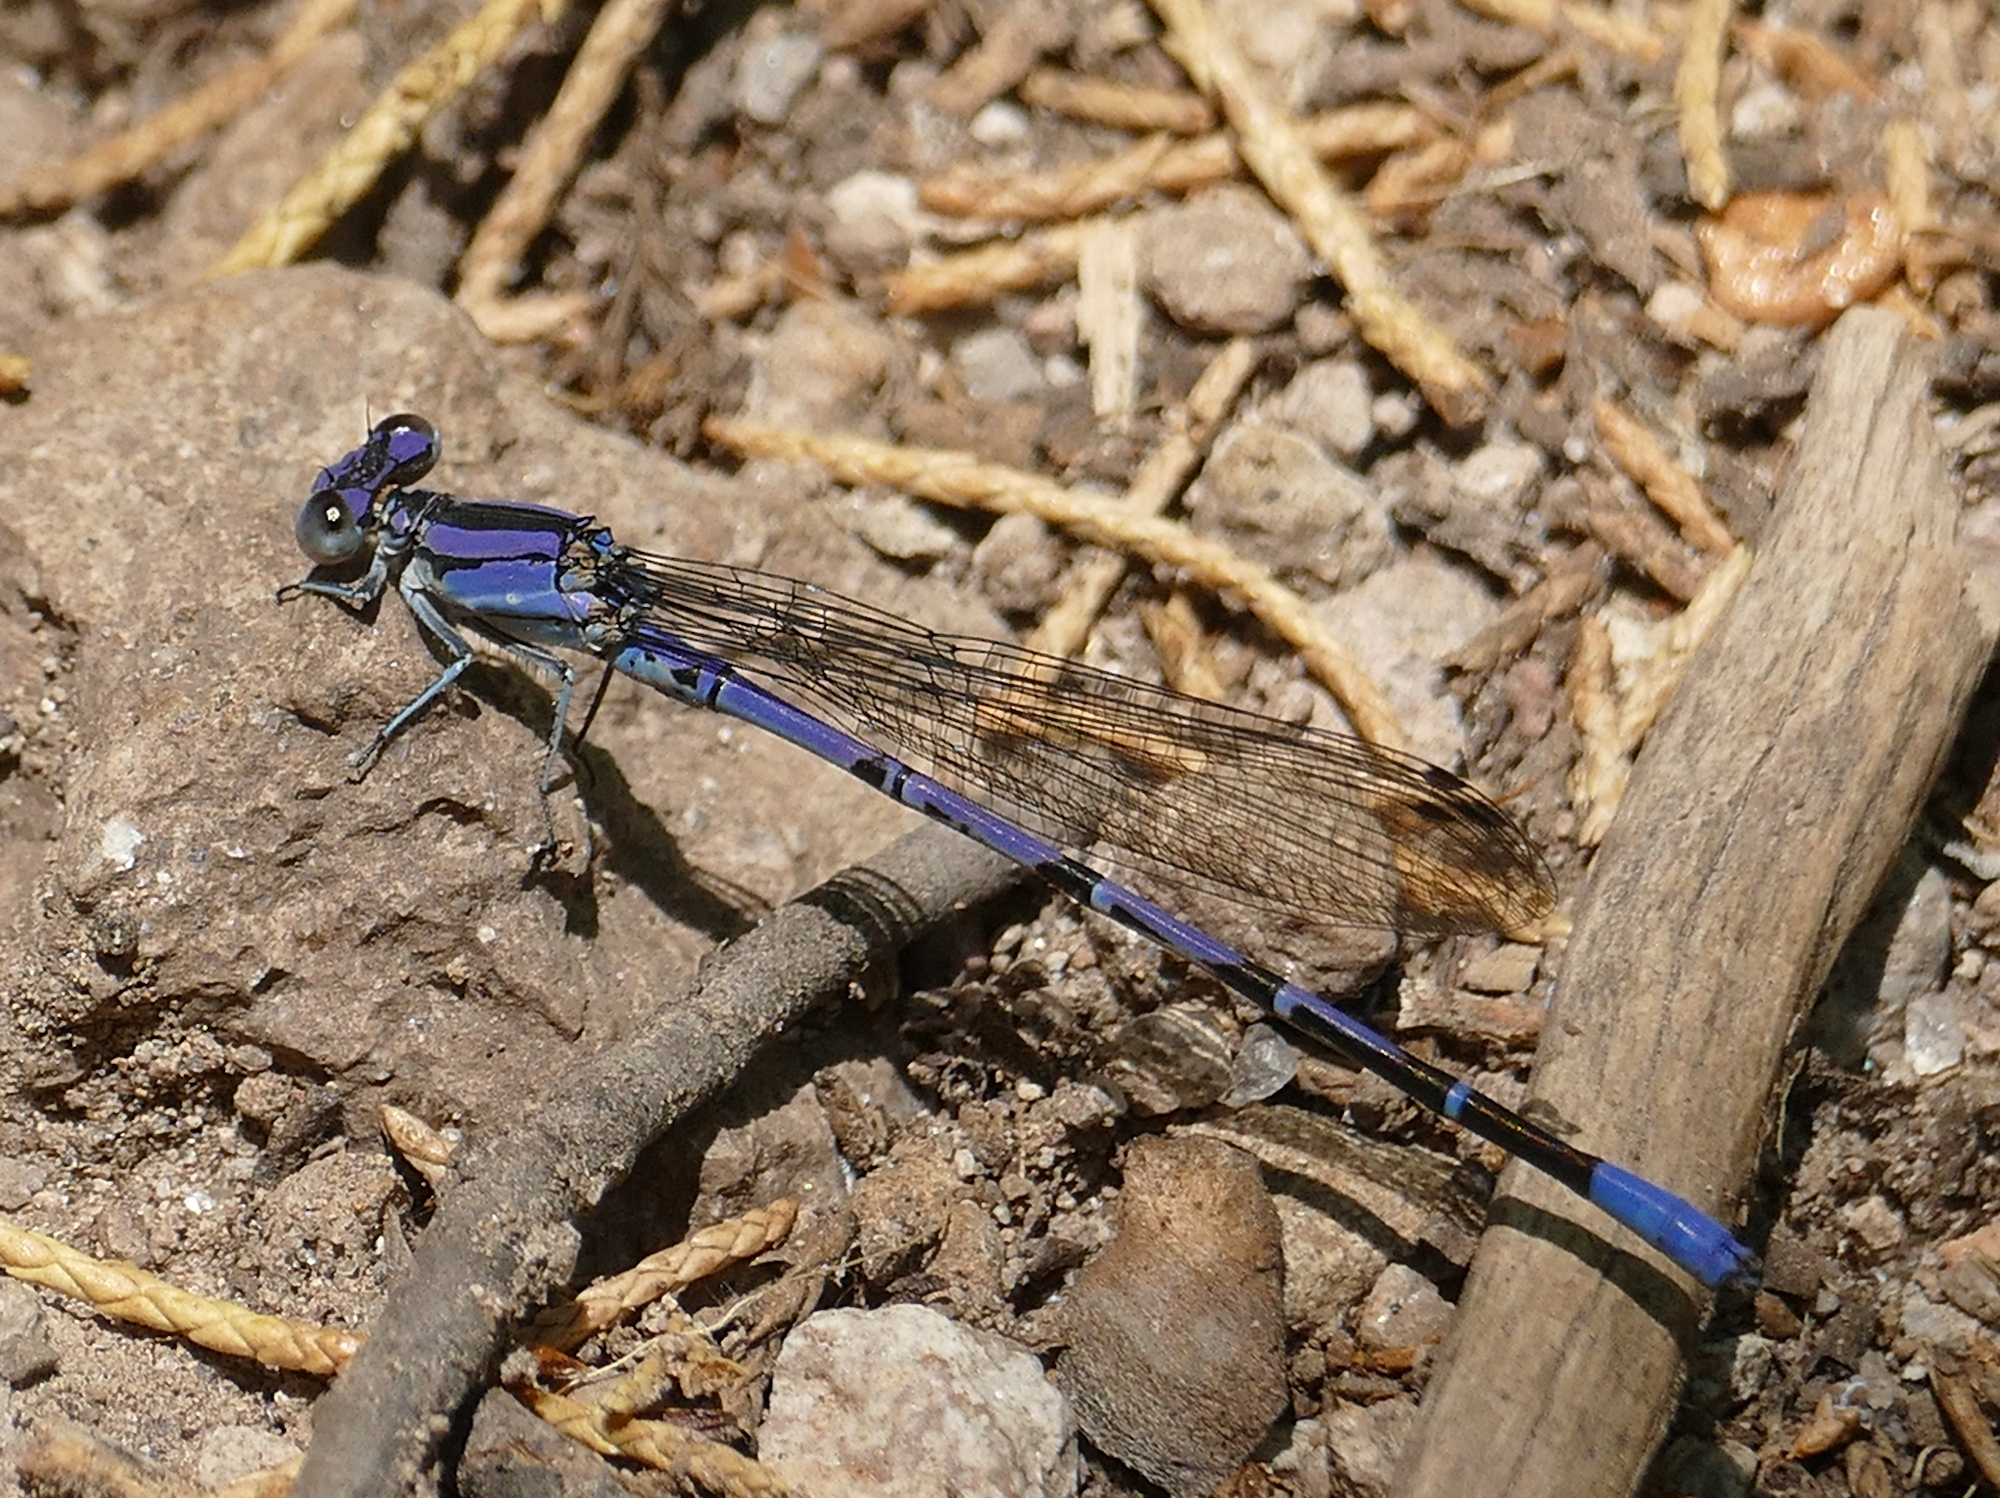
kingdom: Animalia
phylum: Arthropoda
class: Insecta
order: Odonata
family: Coenagrionidae
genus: Argia
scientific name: Argia funebris
